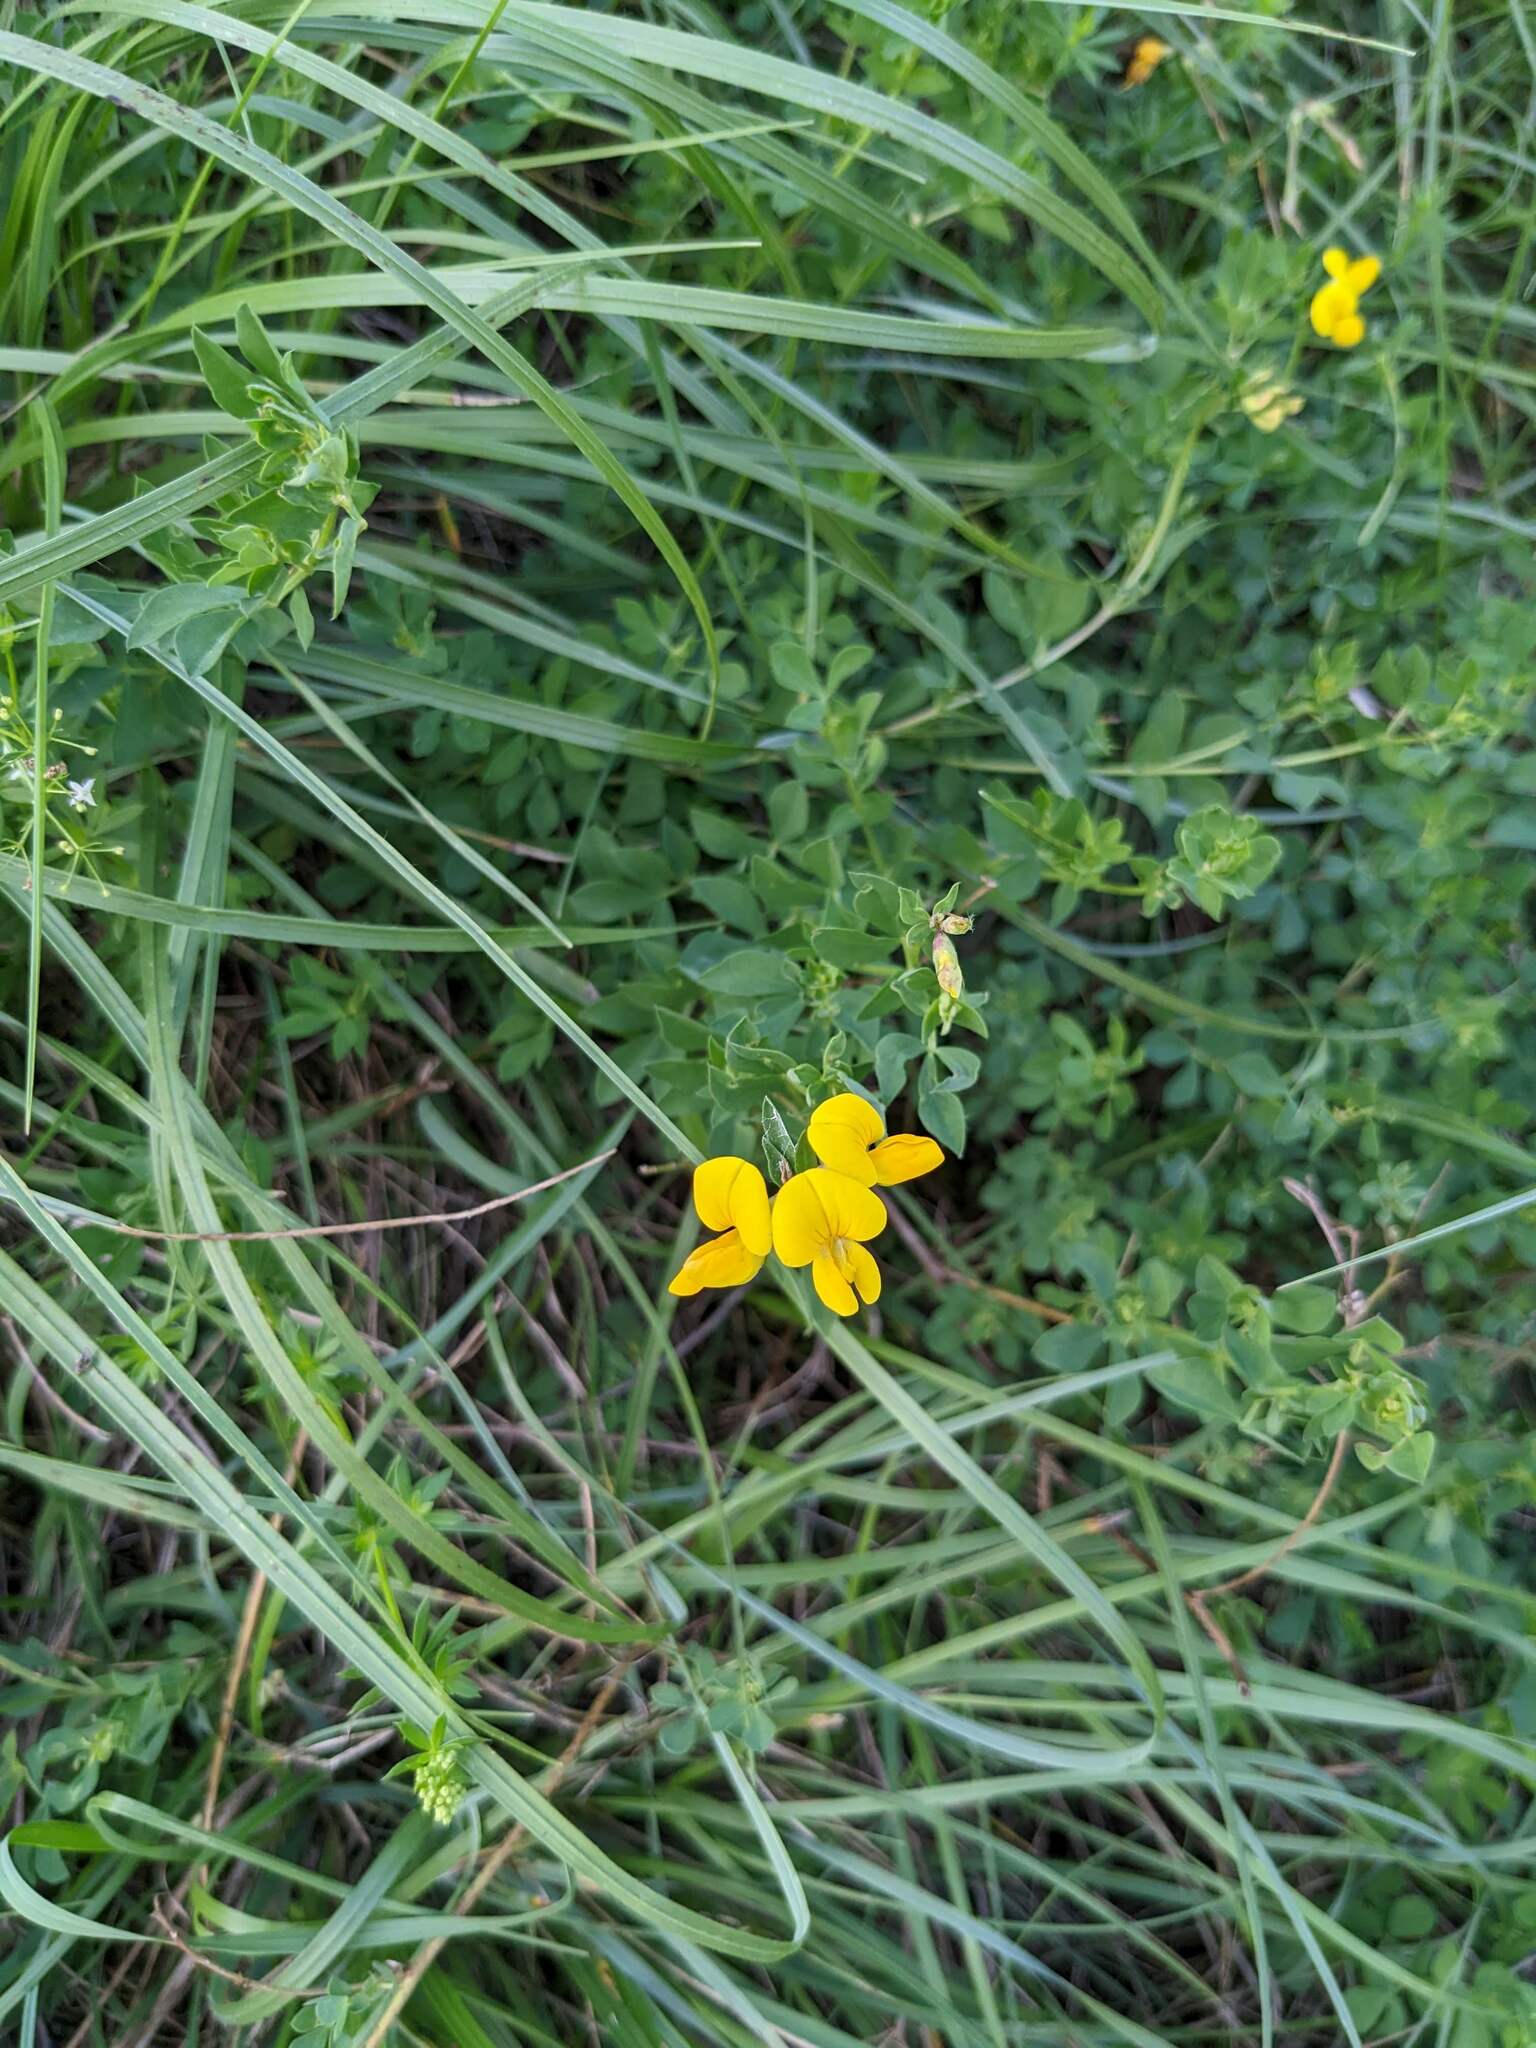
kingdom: Plantae
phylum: Tracheophyta
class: Magnoliopsida
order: Fabales
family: Fabaceae
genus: Lotus
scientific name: Lotus corniculatus
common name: Common bird's-foot-trefoil
